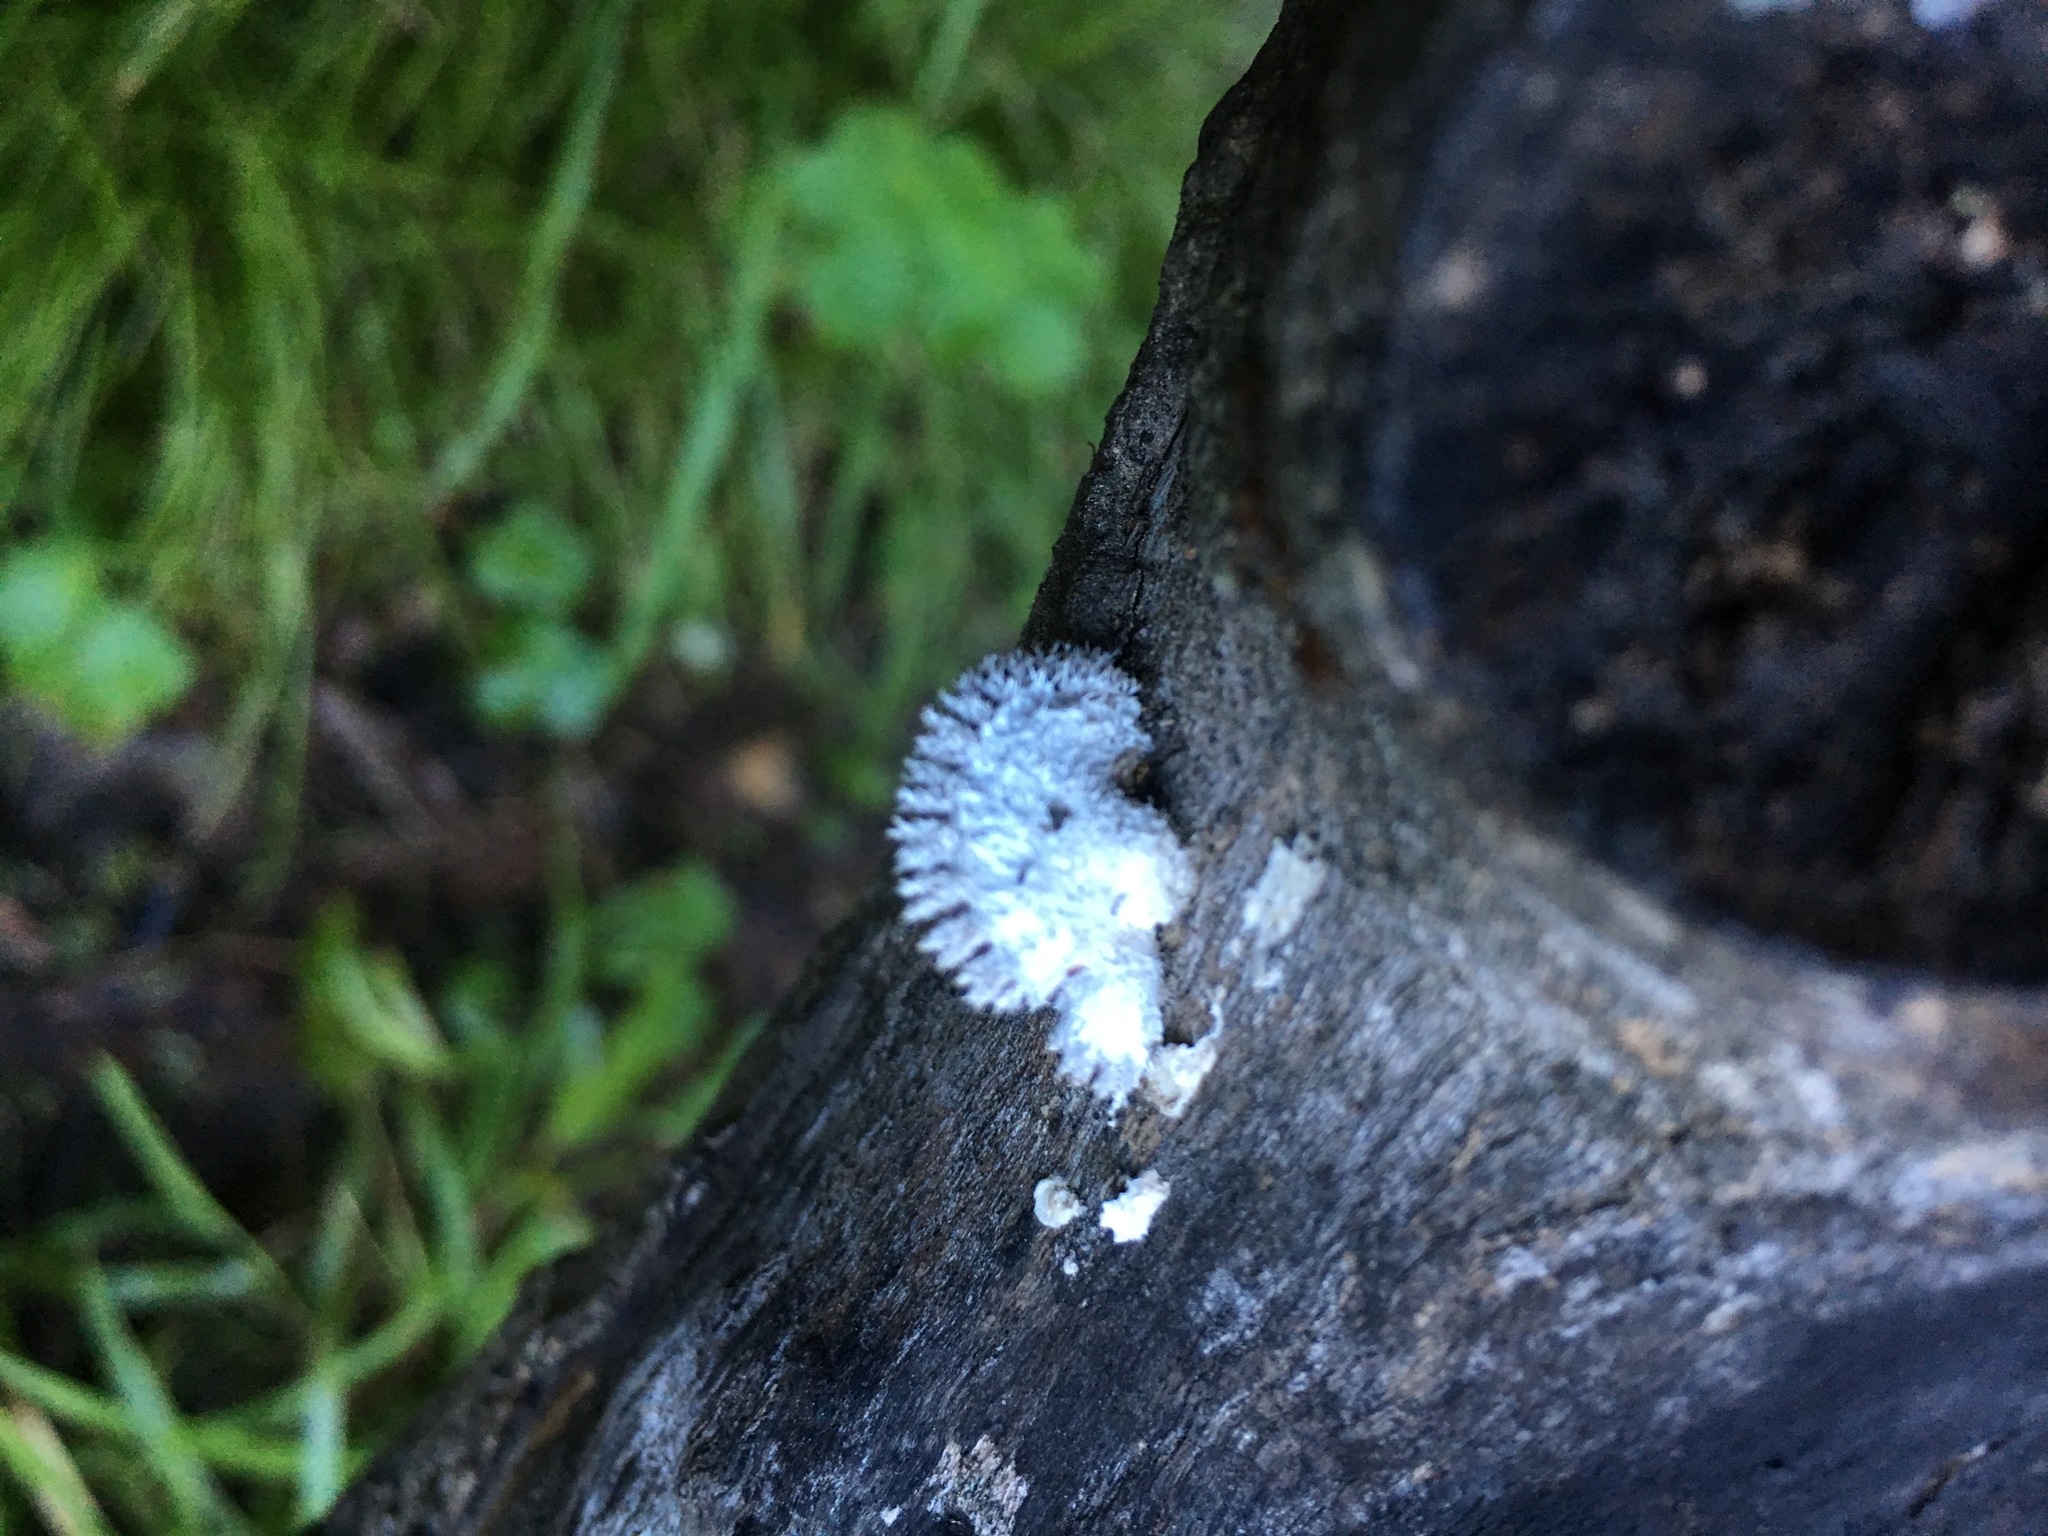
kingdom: Fungi
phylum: Basidiomycota
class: Agaricomycetes
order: Agaricales
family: Schizophyllaceae
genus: Schizophyllum
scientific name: Schizophyllum commune
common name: Common porecrust
